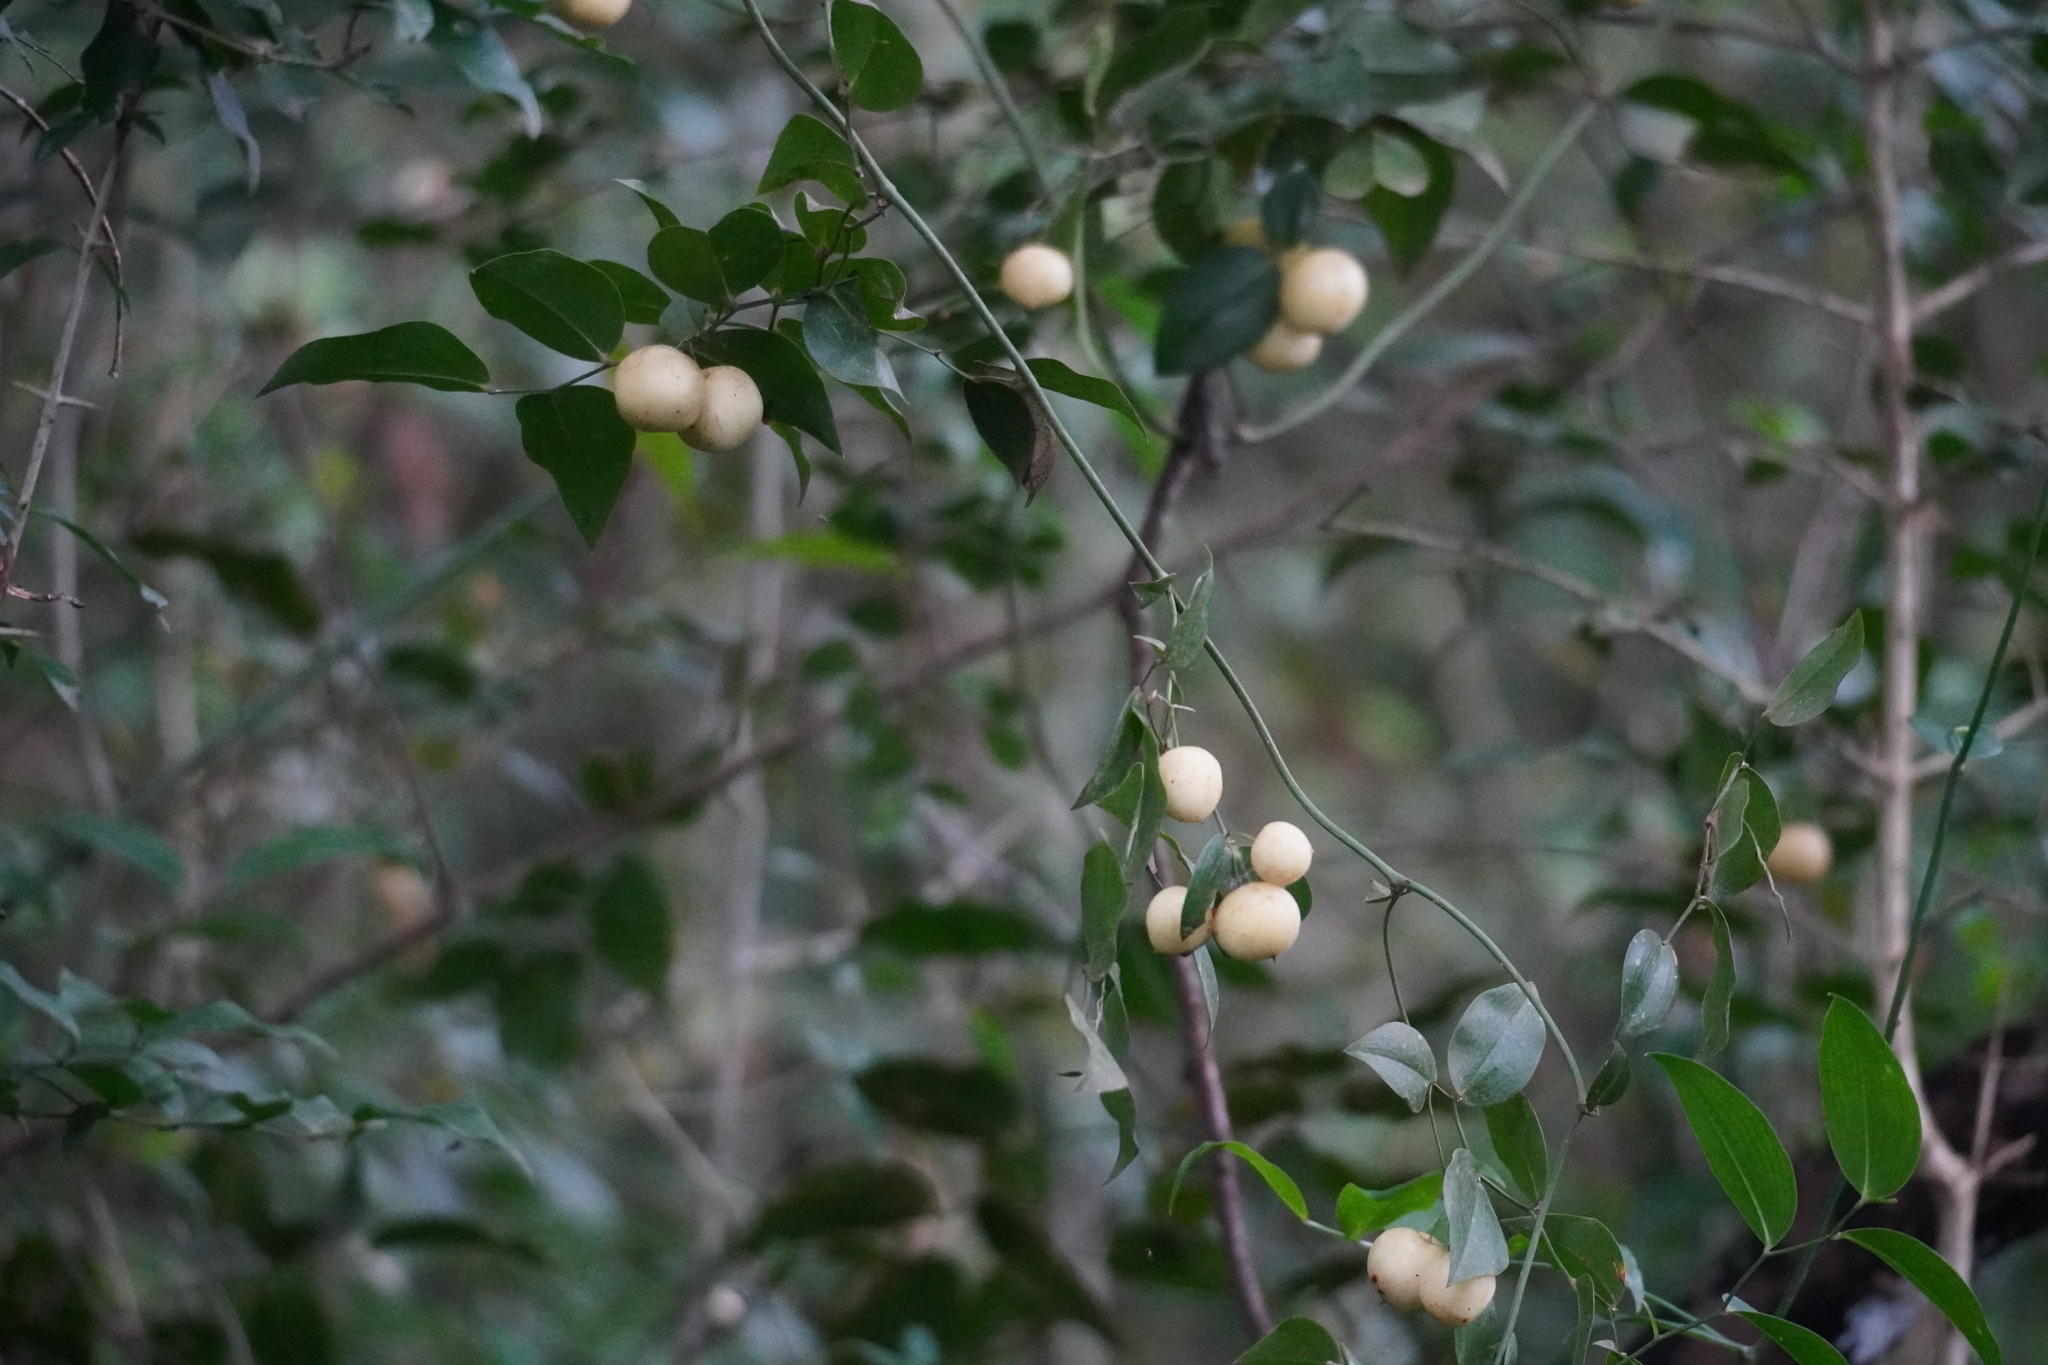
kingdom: Plantae
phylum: Tracheophyta
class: Liliopsida
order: Asparagales
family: Asparagaceae
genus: Behnia
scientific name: Behnia reticulata
